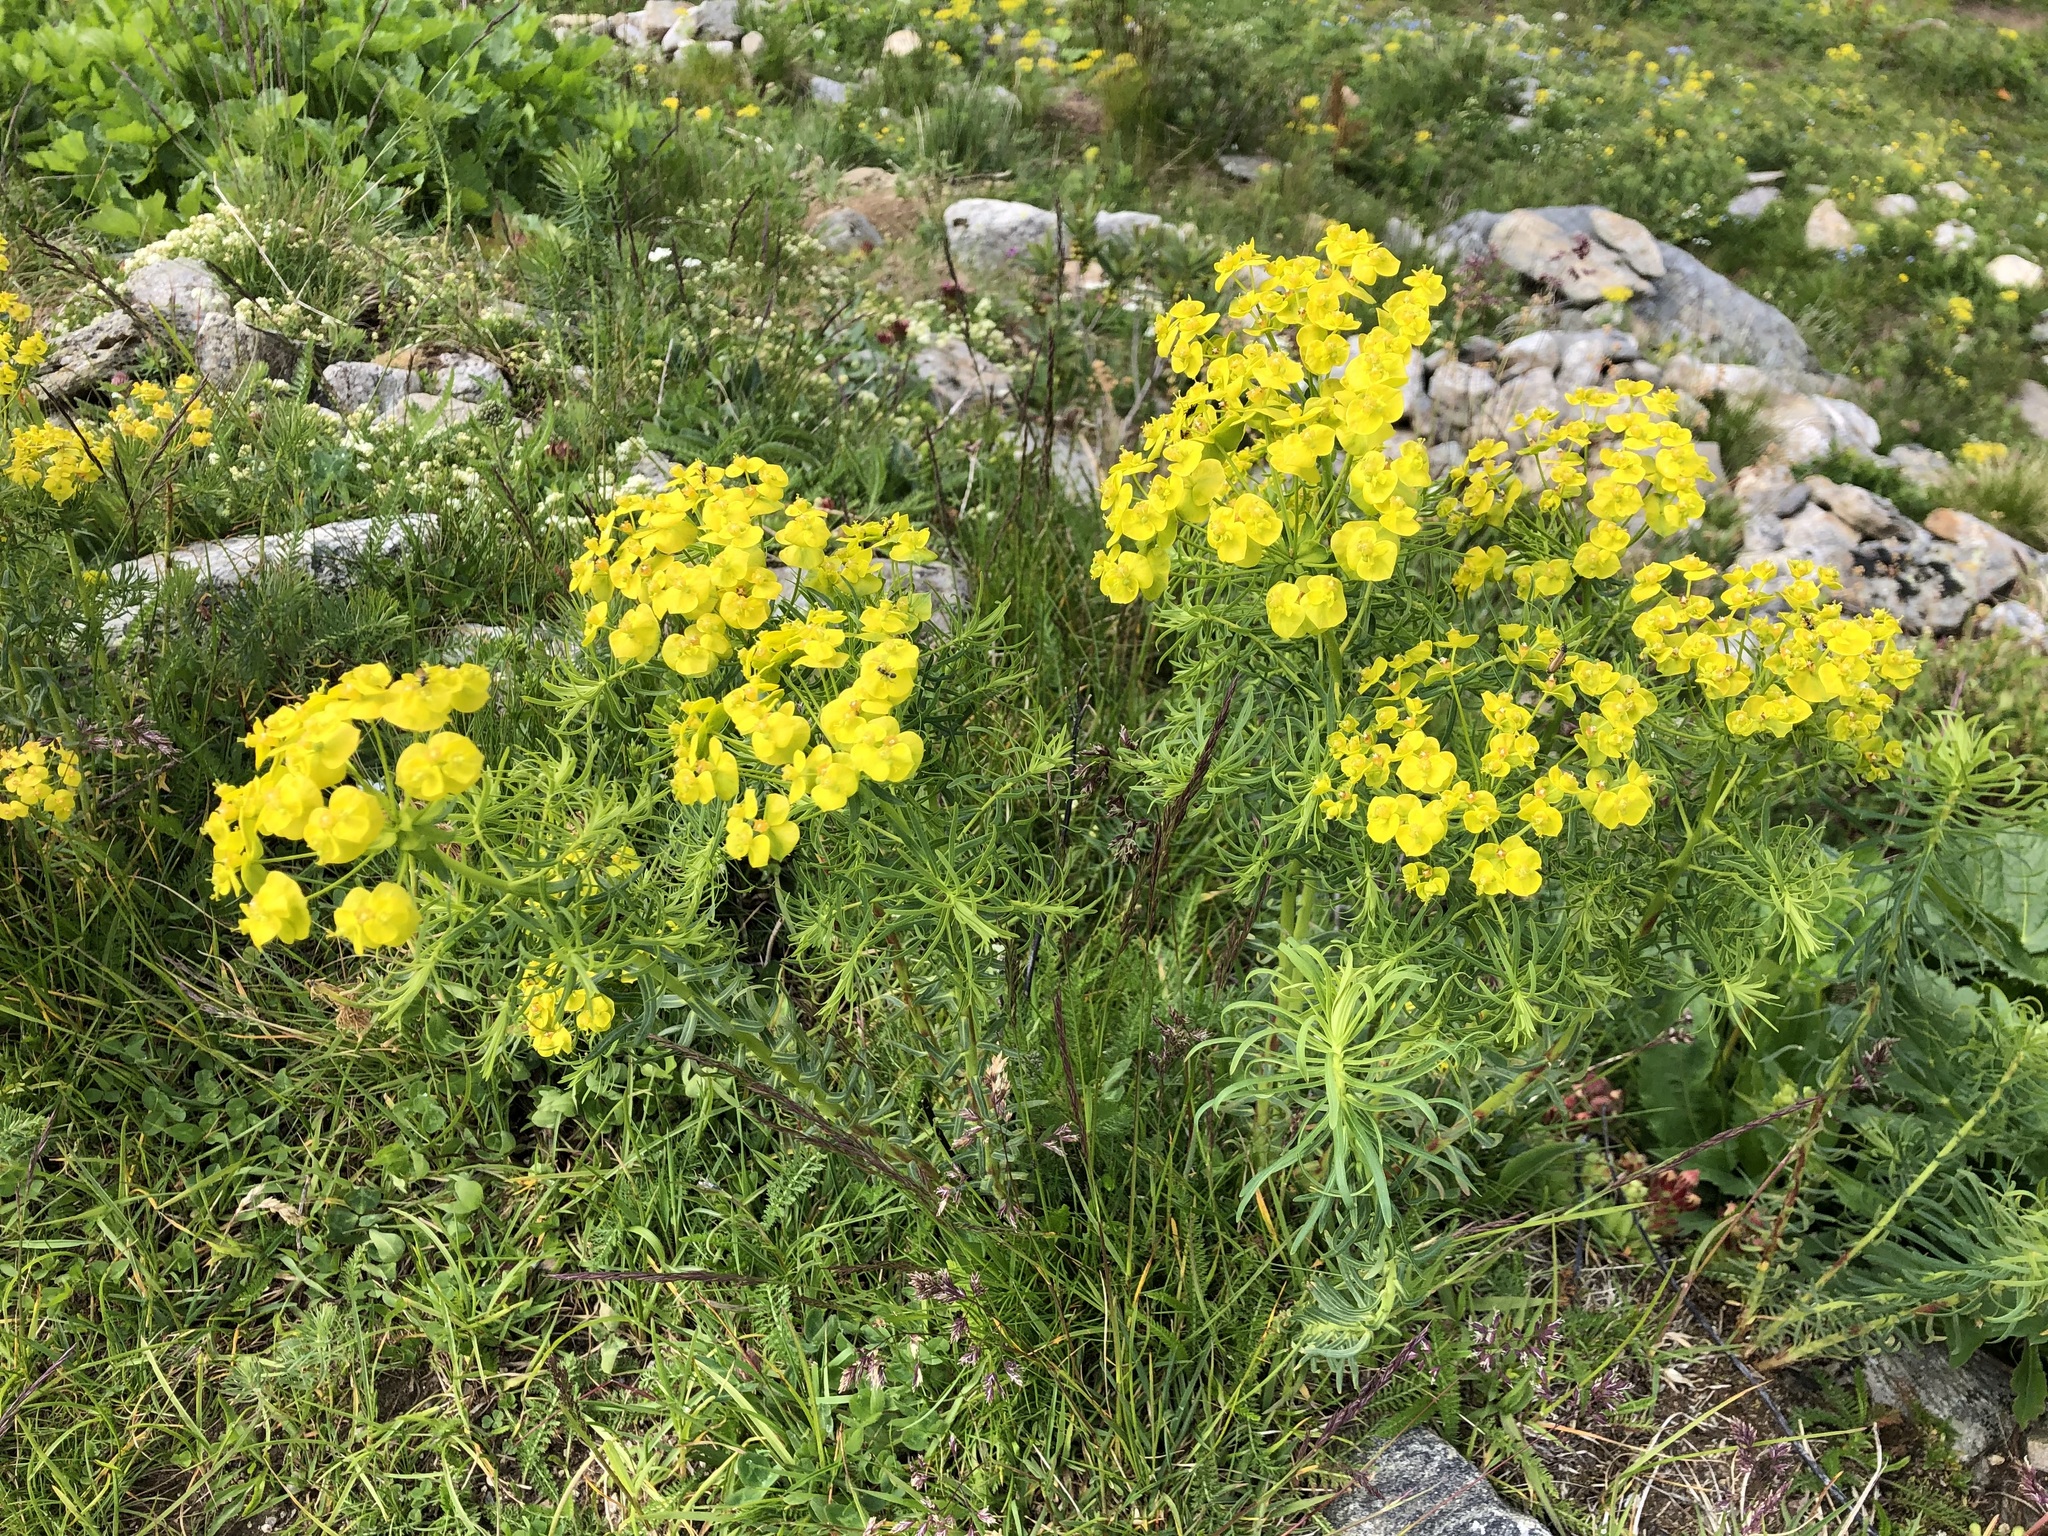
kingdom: Plantae
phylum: Tracheophyta
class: Magnoliopsida
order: Malpighiales
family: Euphorbiaceae
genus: Euphorbia
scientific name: Euphorbia cyparissias
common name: Cypress spurge
